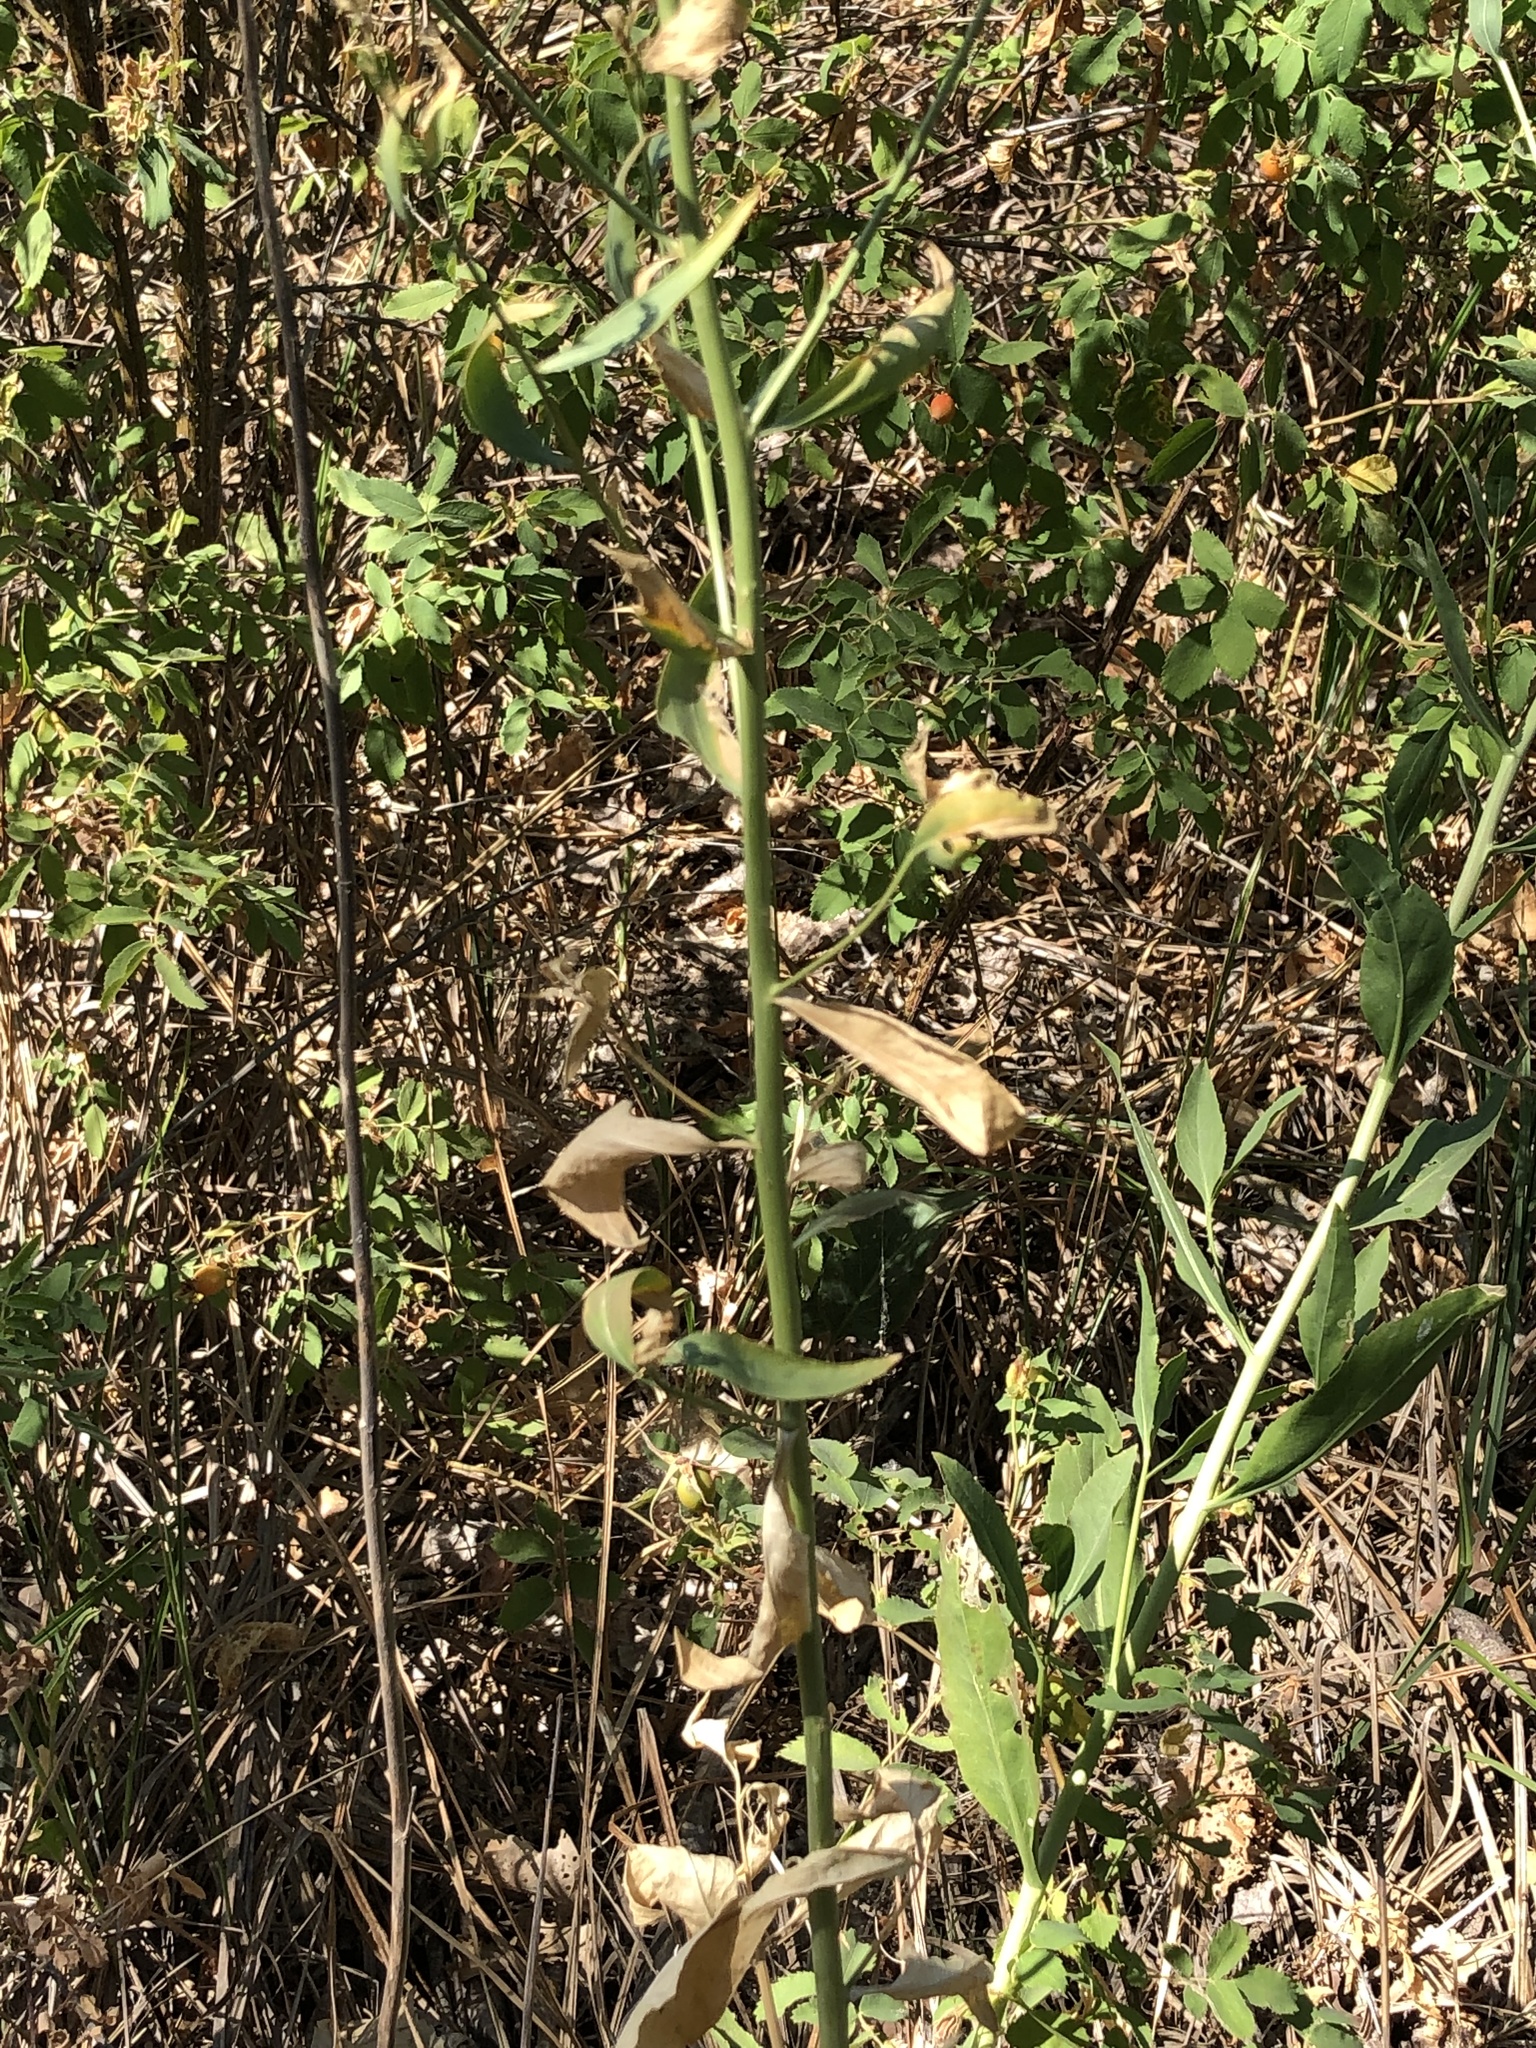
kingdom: Plantae
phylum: Tracheophyta
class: Magnoliopsida
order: Brassicales
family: Brassicaceae
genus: Lepidium
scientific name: Lepidium latifolium
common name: Dittander
